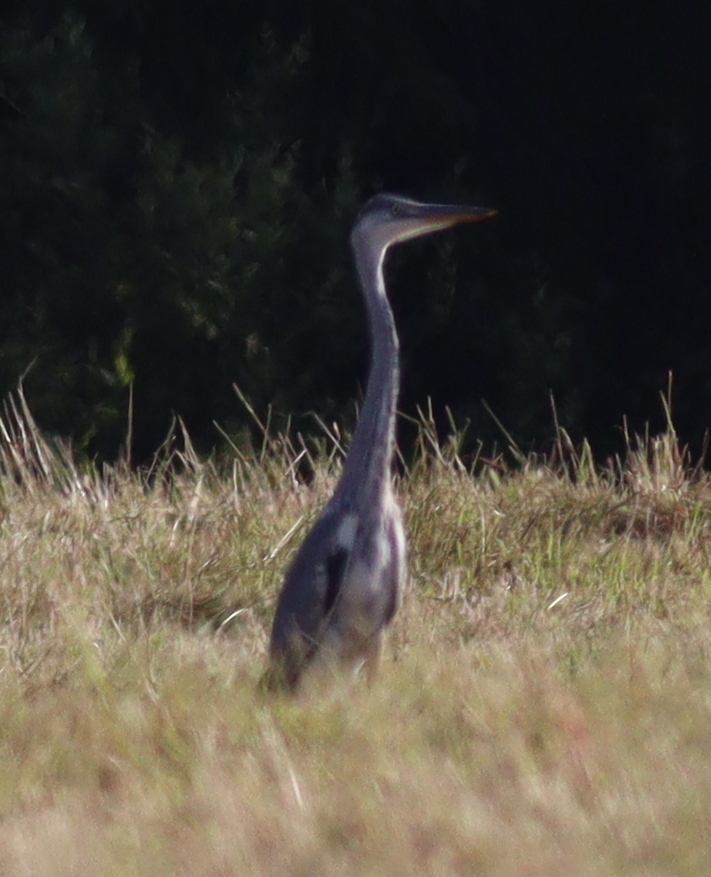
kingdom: Animalia
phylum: Chordata
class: Aves
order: Pelecaniformes
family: Ardeidae
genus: Ardea
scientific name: Ardea cinerea
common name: Grey heron
